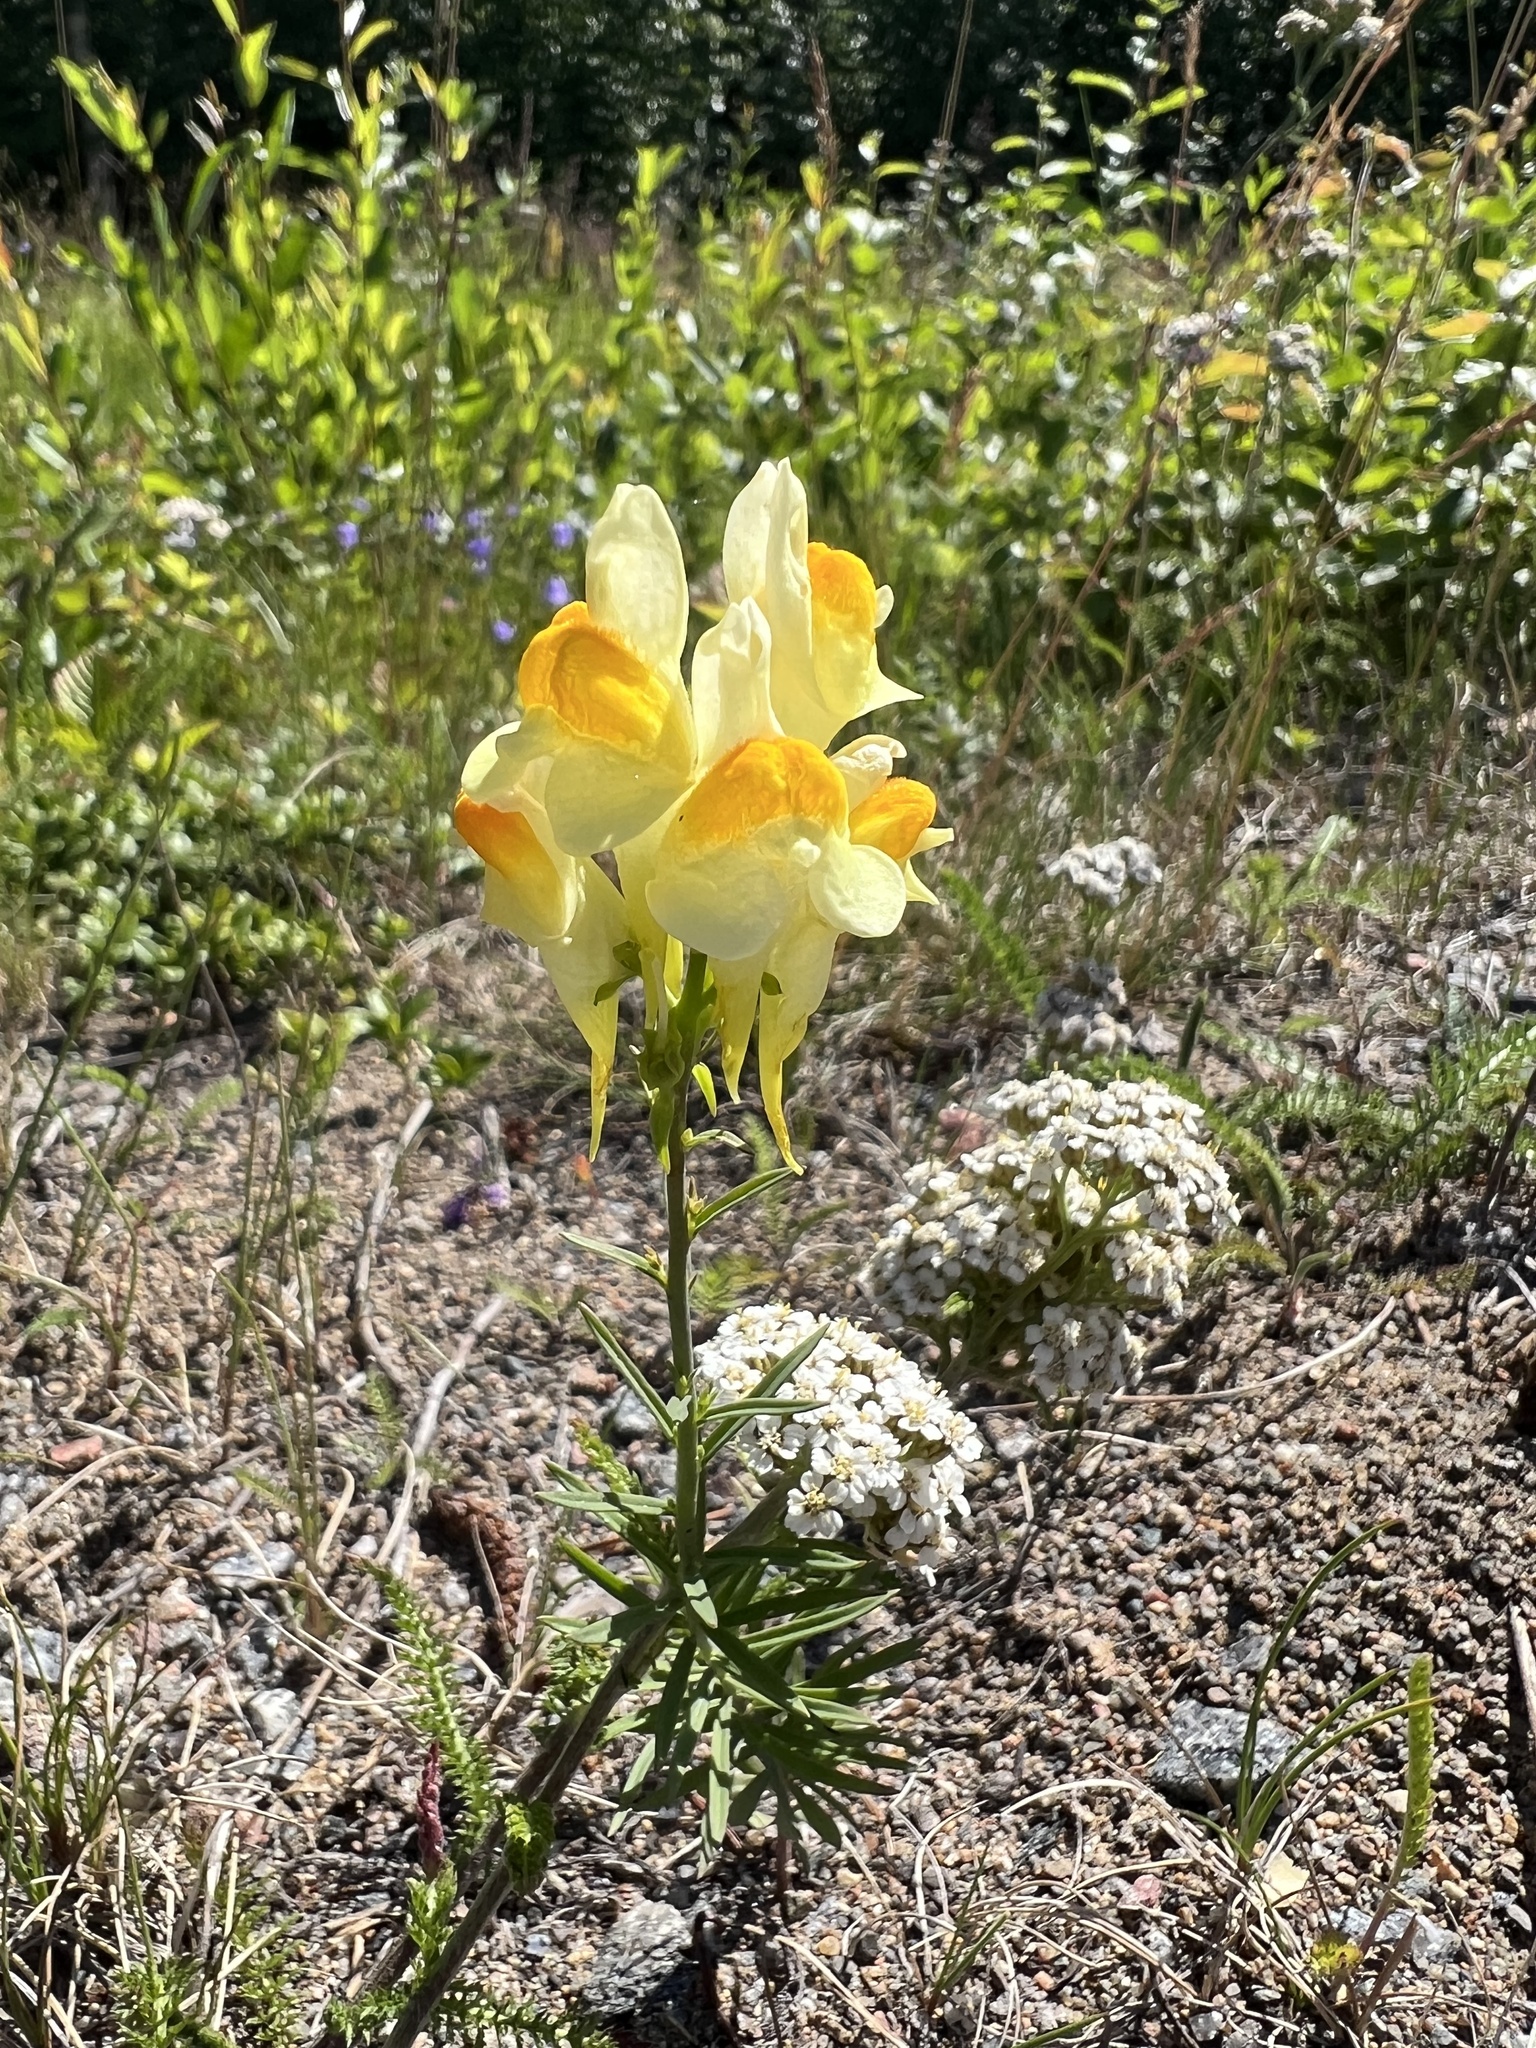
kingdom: Plantae
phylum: Tracheophyta
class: Magnoliopsida
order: Lamiales
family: Plantaginaceae
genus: Linaria
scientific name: Linaria vulgaris
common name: Butter and eggs
